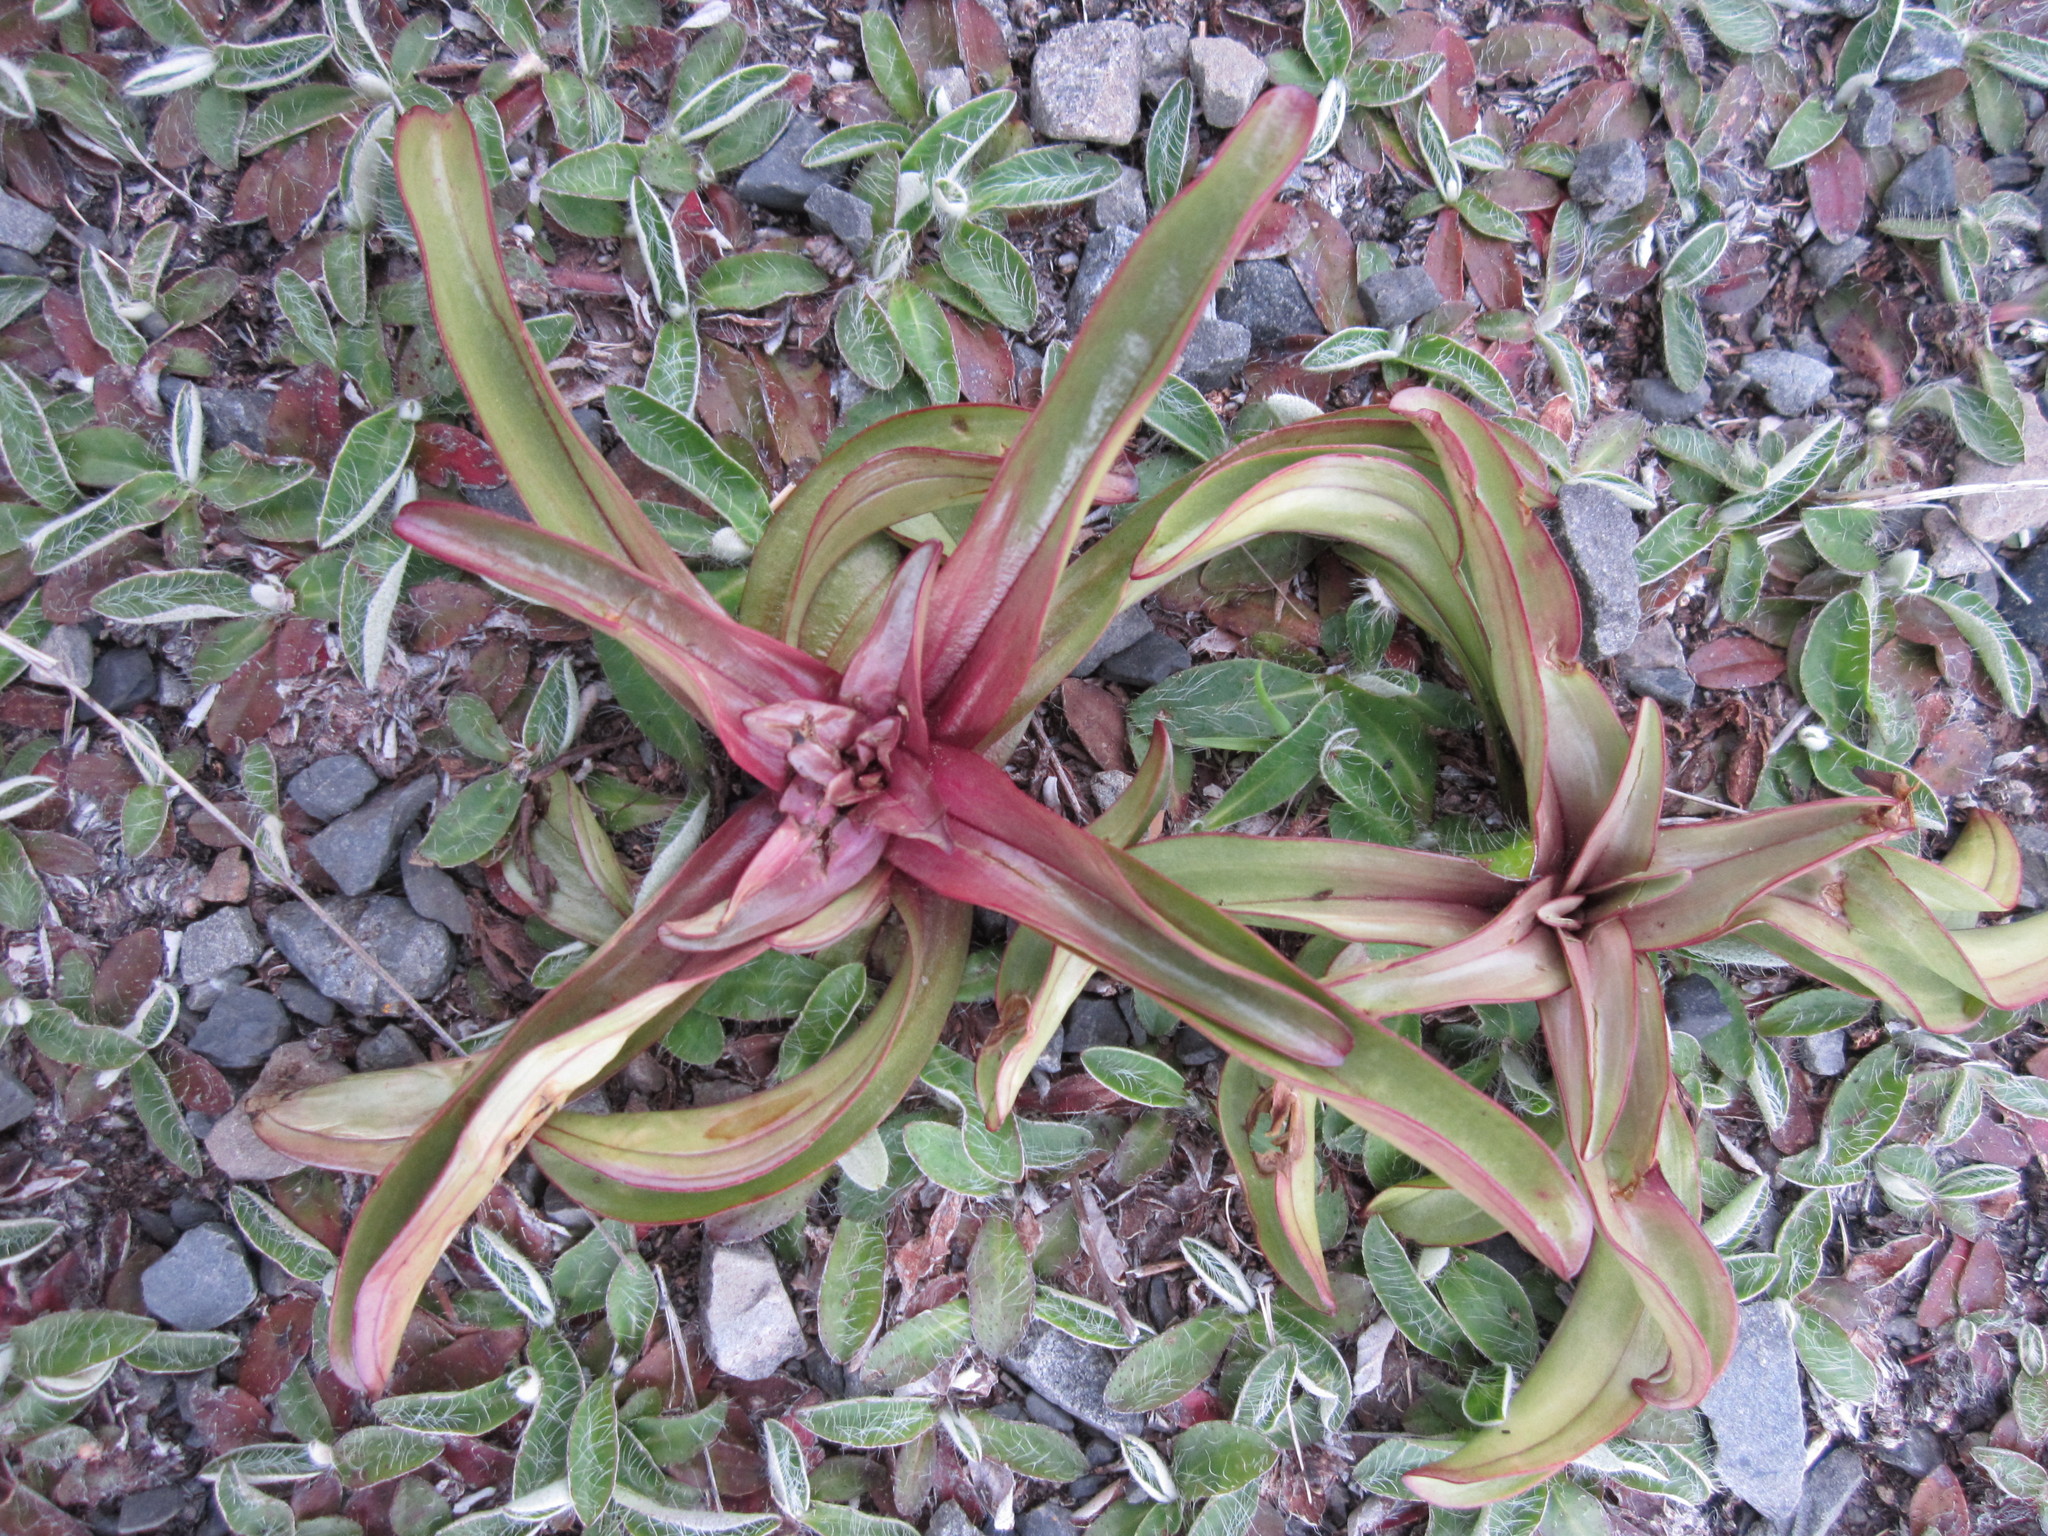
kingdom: Plantae
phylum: Tracheophyta
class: Magnoliopsida
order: Gentianales
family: Gentianaceae
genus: Gentianella
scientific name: Gentianella corymbifera
